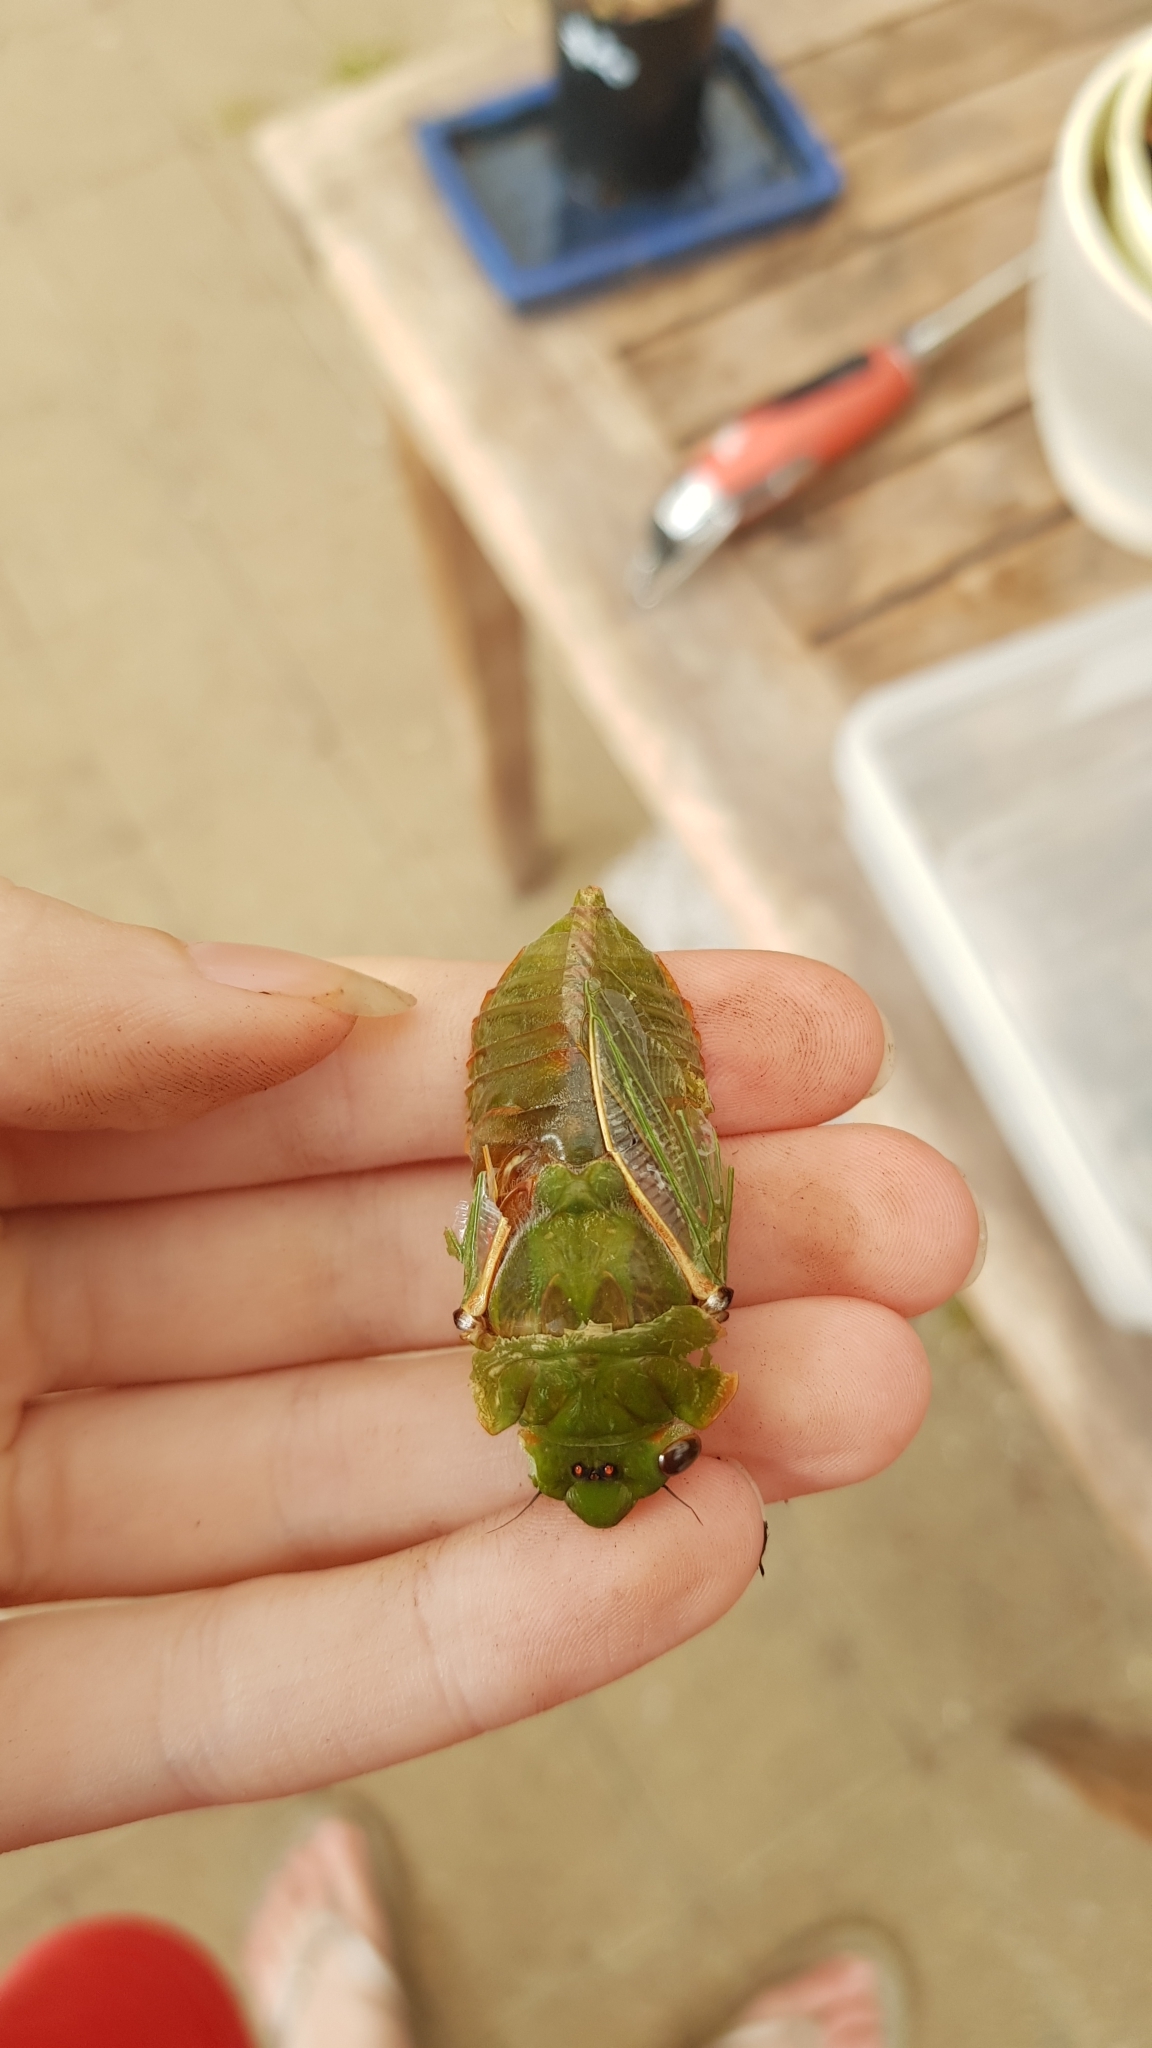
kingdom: Animalia
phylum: Arthropoda
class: Insecta
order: Hemiptera
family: Cicadidae
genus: Cyclochila
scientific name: Cyclochila australasiae
